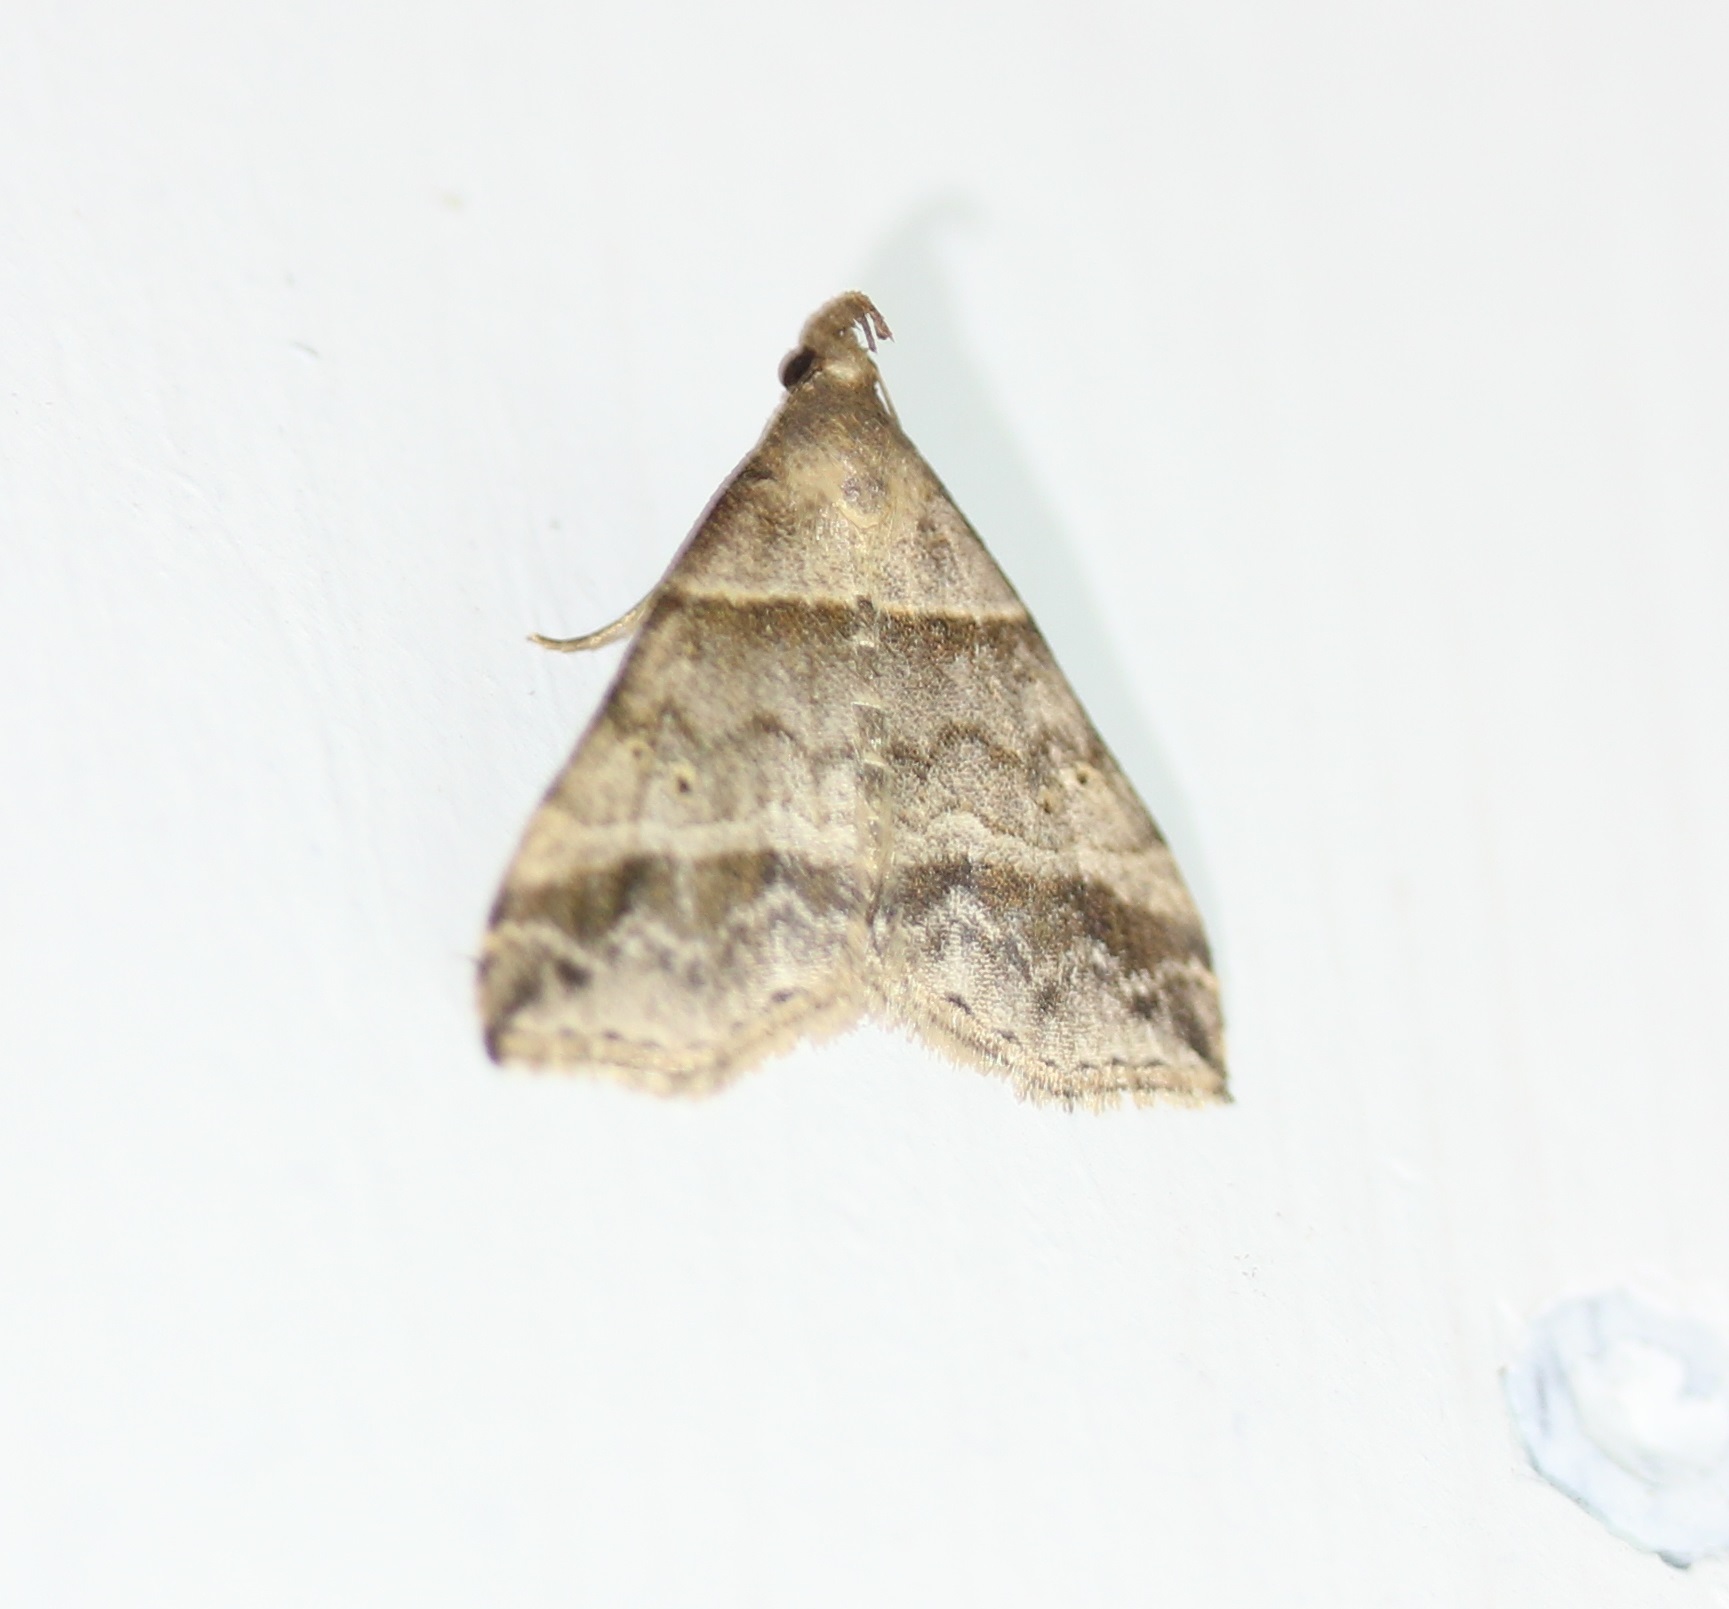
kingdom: Animalia
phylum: Arthropoda
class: Insecta
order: Lepidoptera
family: Erebidae
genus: Phaeolita
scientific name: Phaeolita pyramusalis
